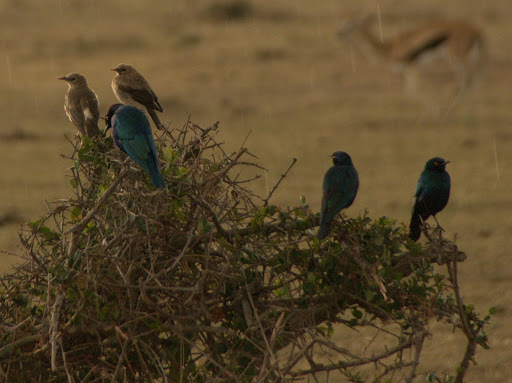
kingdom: Animalia
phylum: Chordata
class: Aves
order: Passeriformes
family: Sturnidae
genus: Lamprotornis
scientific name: Lamprotornis chalybaeus
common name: Greater blue-eared starling
